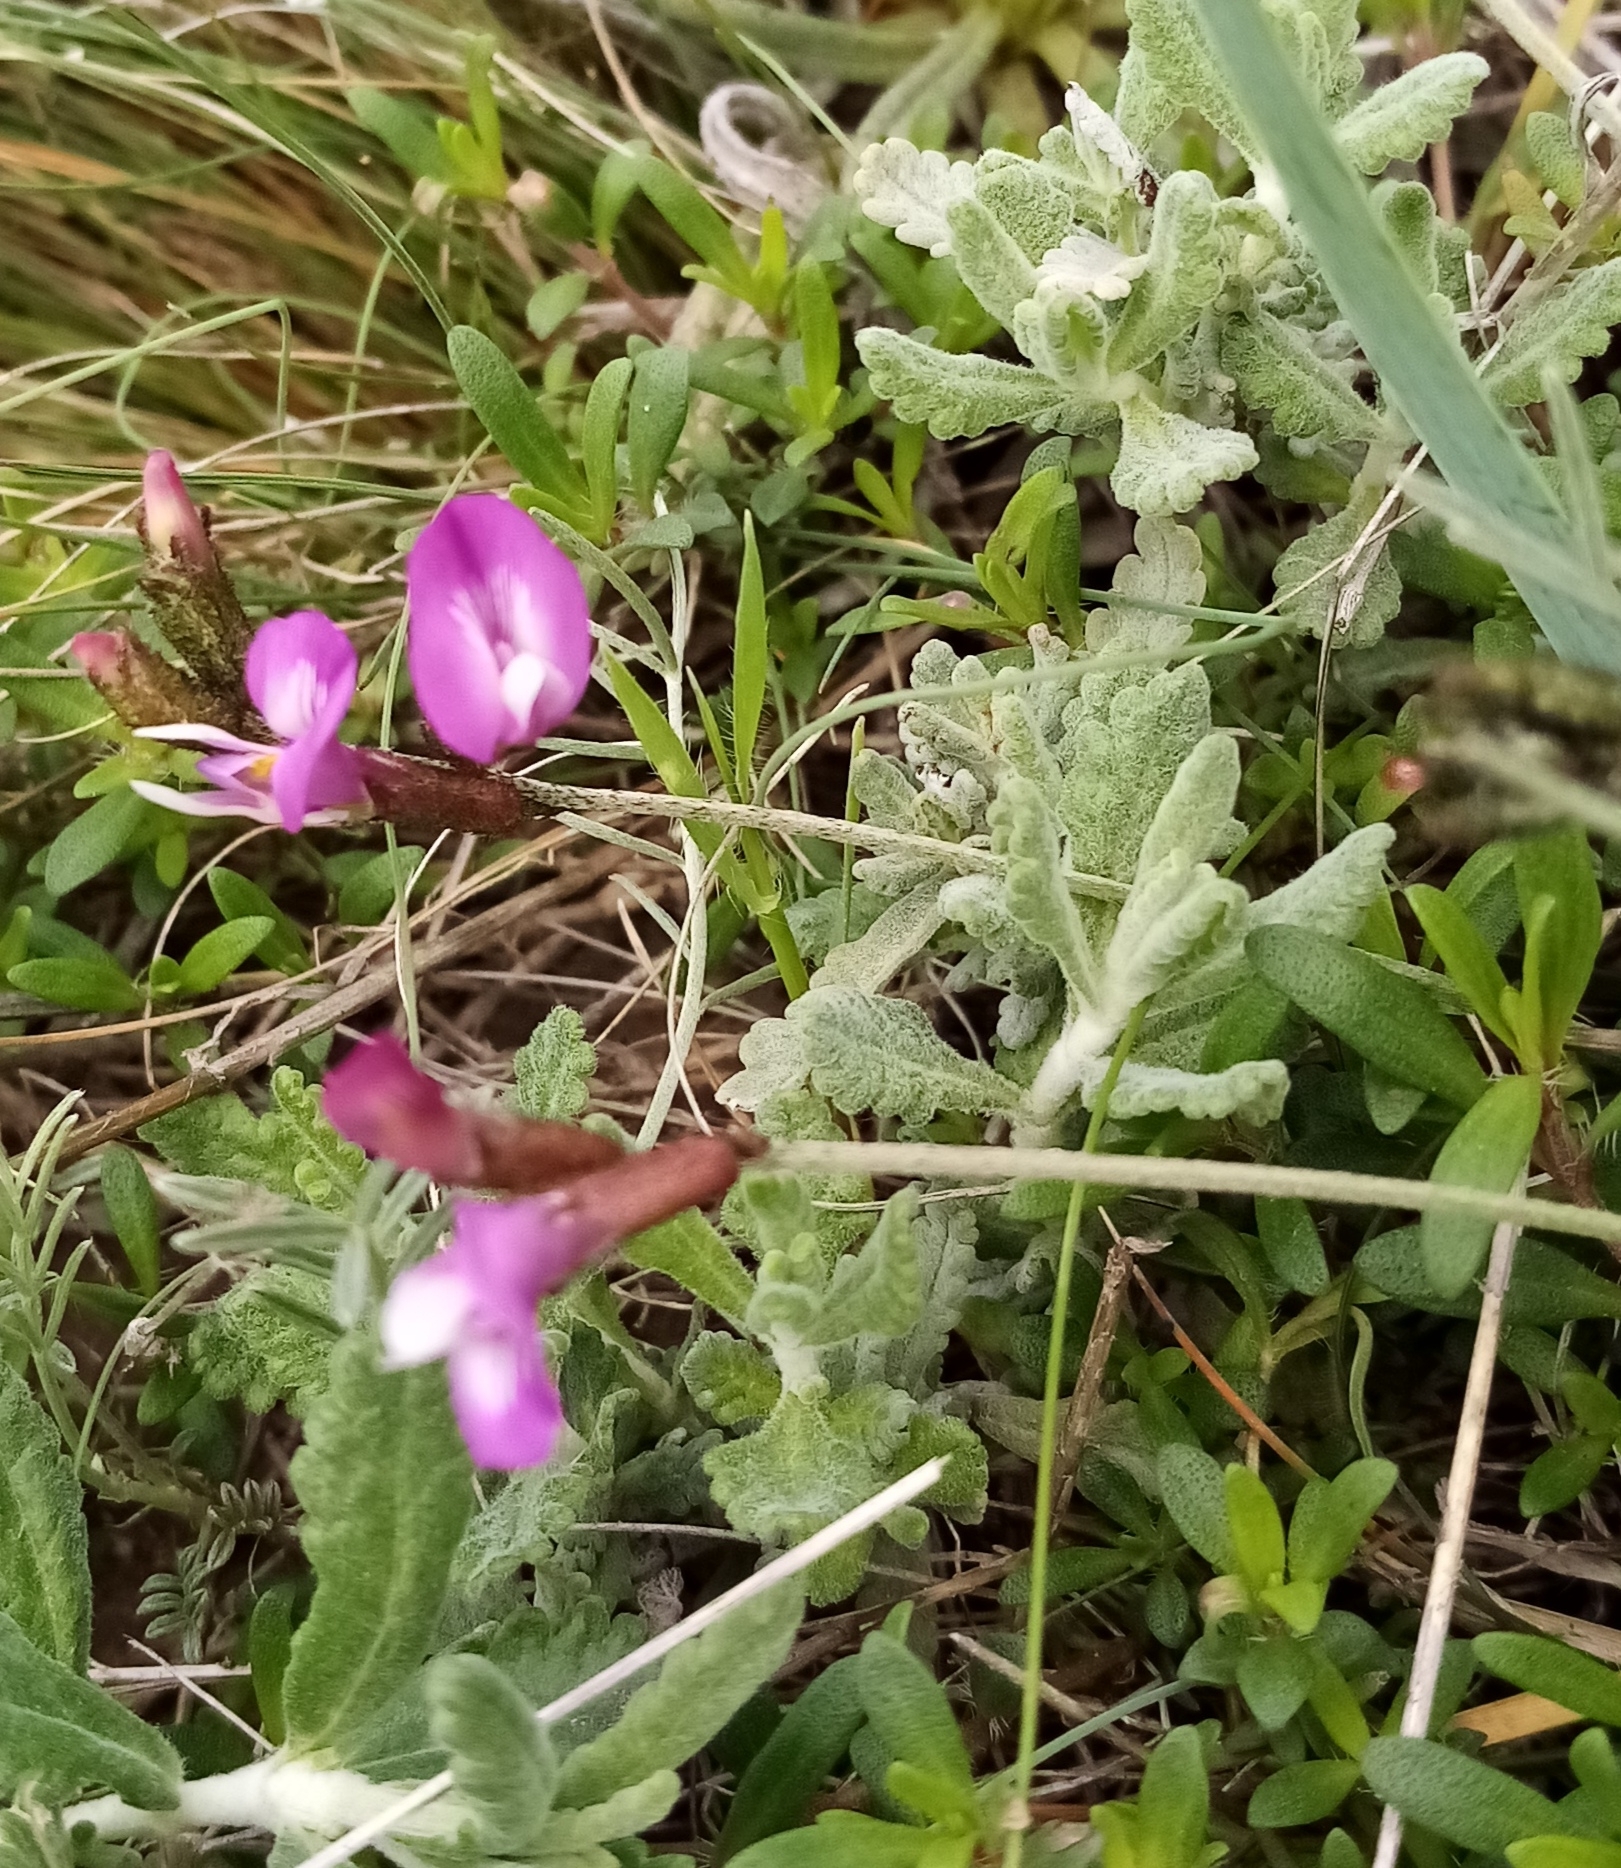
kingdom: Plantae
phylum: Tracheophyta
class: Magnoliopsida
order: Fabales
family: Fabaceae
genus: Astragalus
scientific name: Astragalus subuliformis
